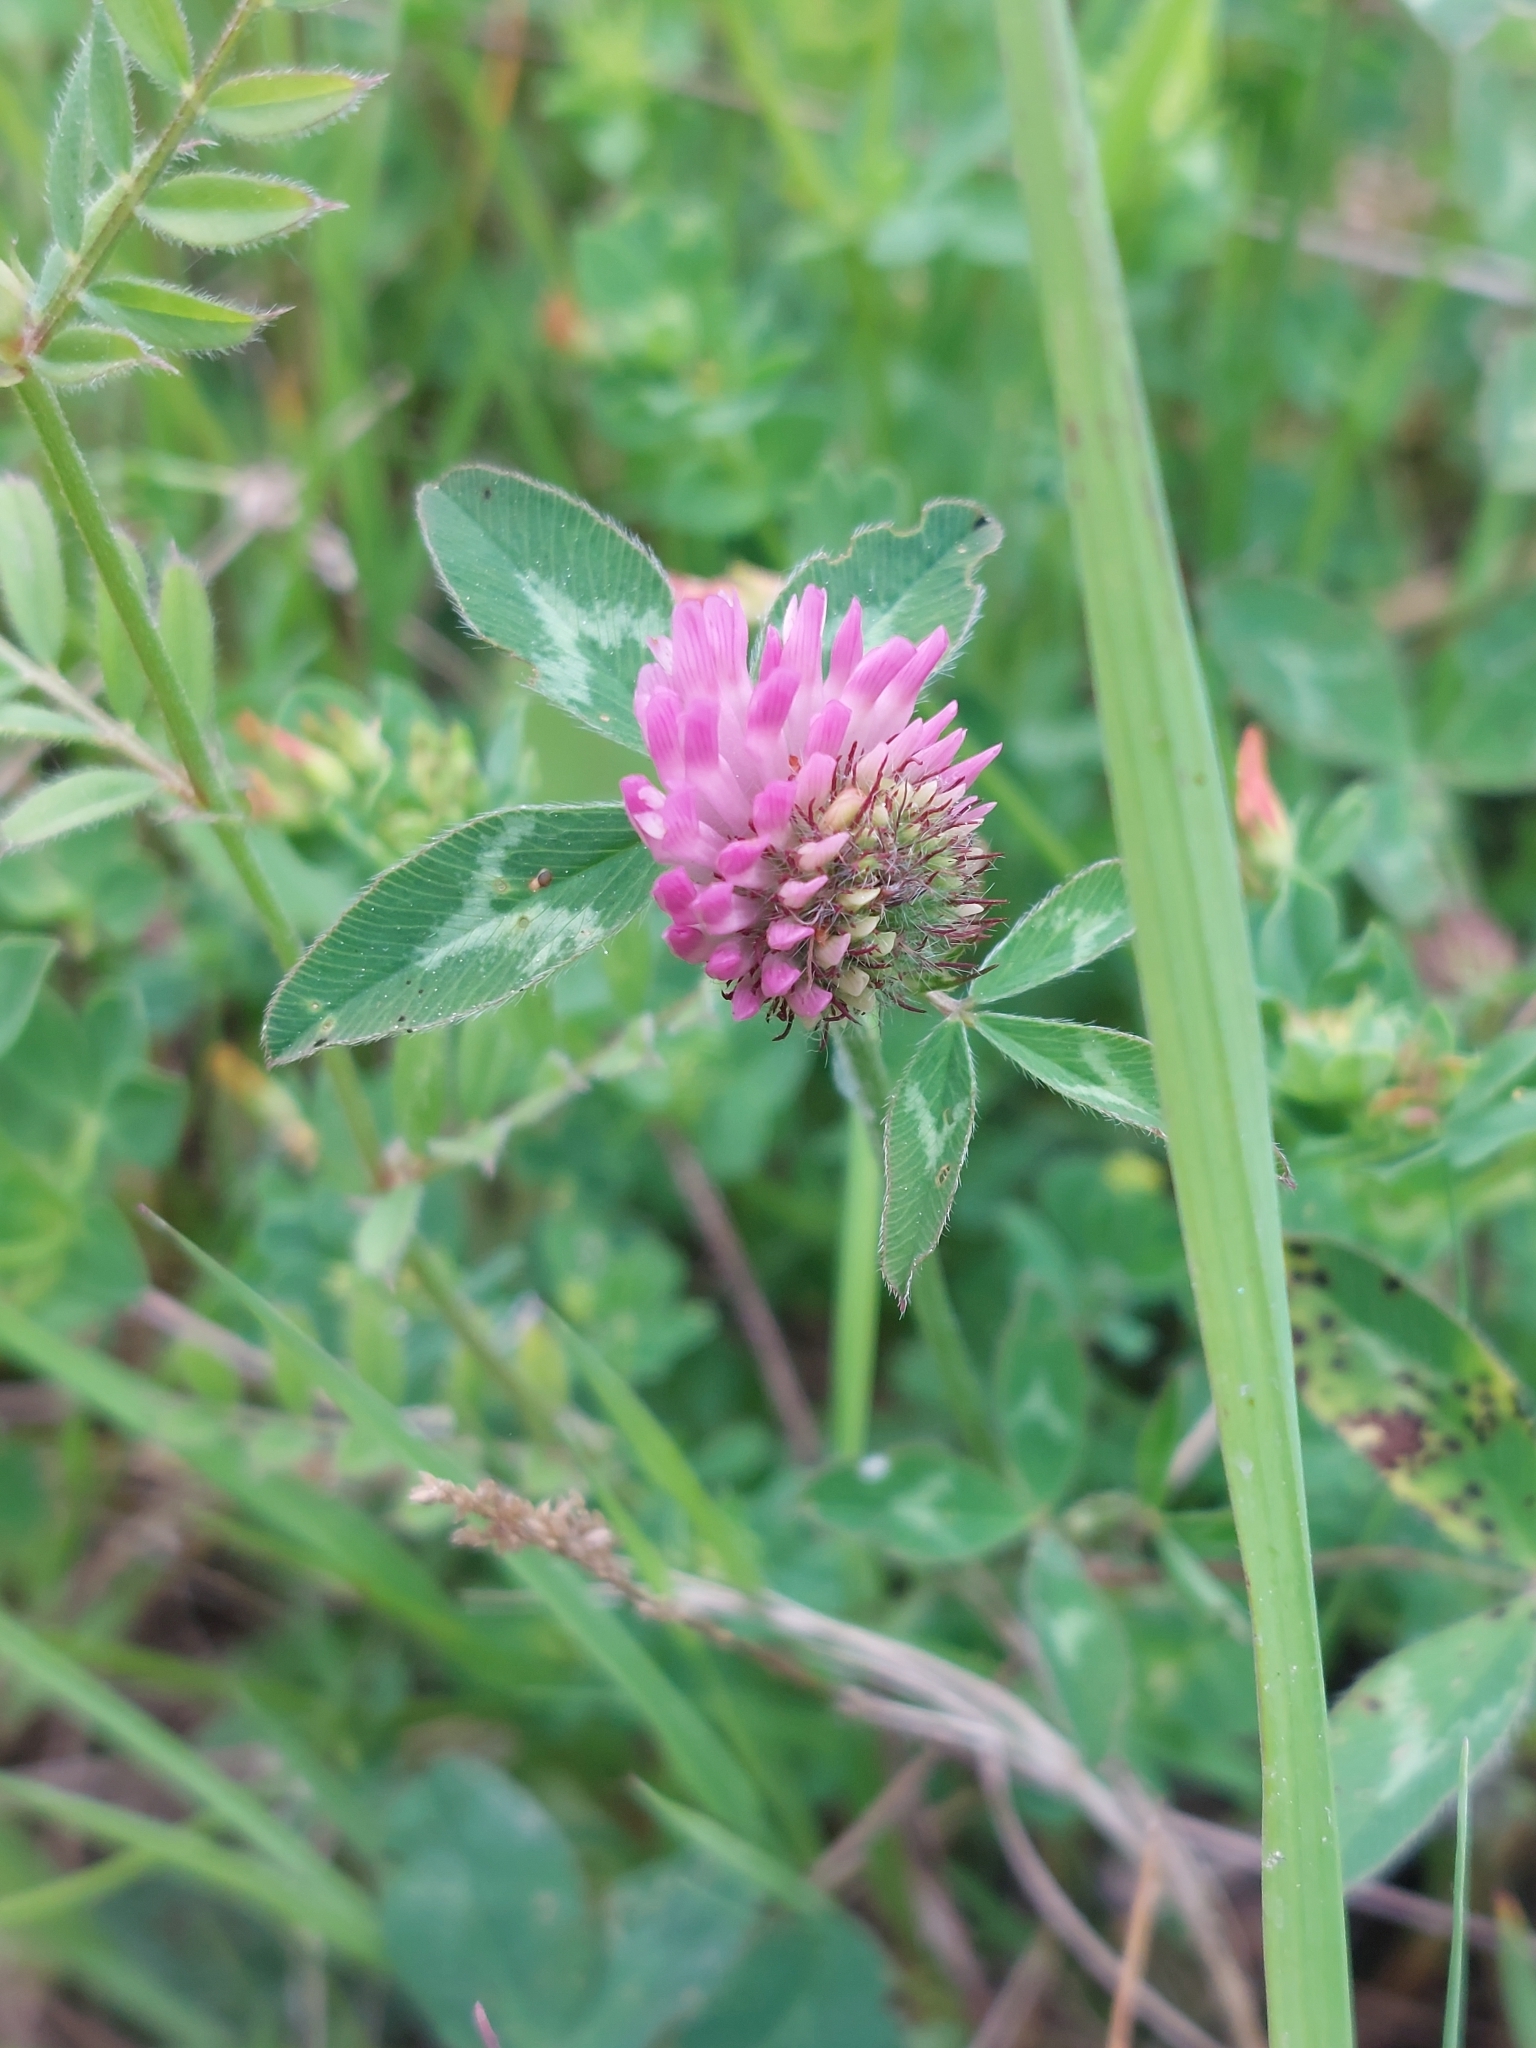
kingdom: Plantae
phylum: Tracheophyta
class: Magnoliopsida
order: Fabales
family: Fabaceae
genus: Trifolium
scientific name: Trifolium pratense
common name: Red clover
